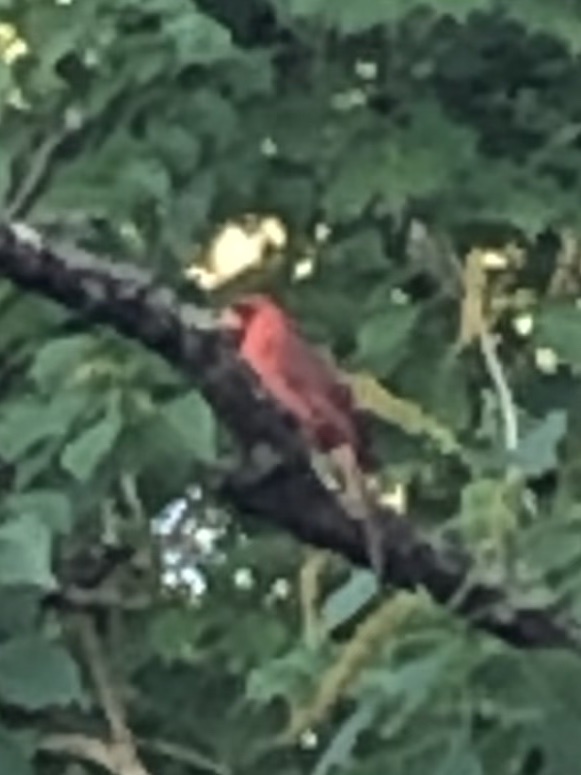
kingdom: Animalia
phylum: Chordata
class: Aves
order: Passeriformes
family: Cardinalidae
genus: Cardinalis
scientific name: Cardinalis cardinalis
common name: Northern cardinal
